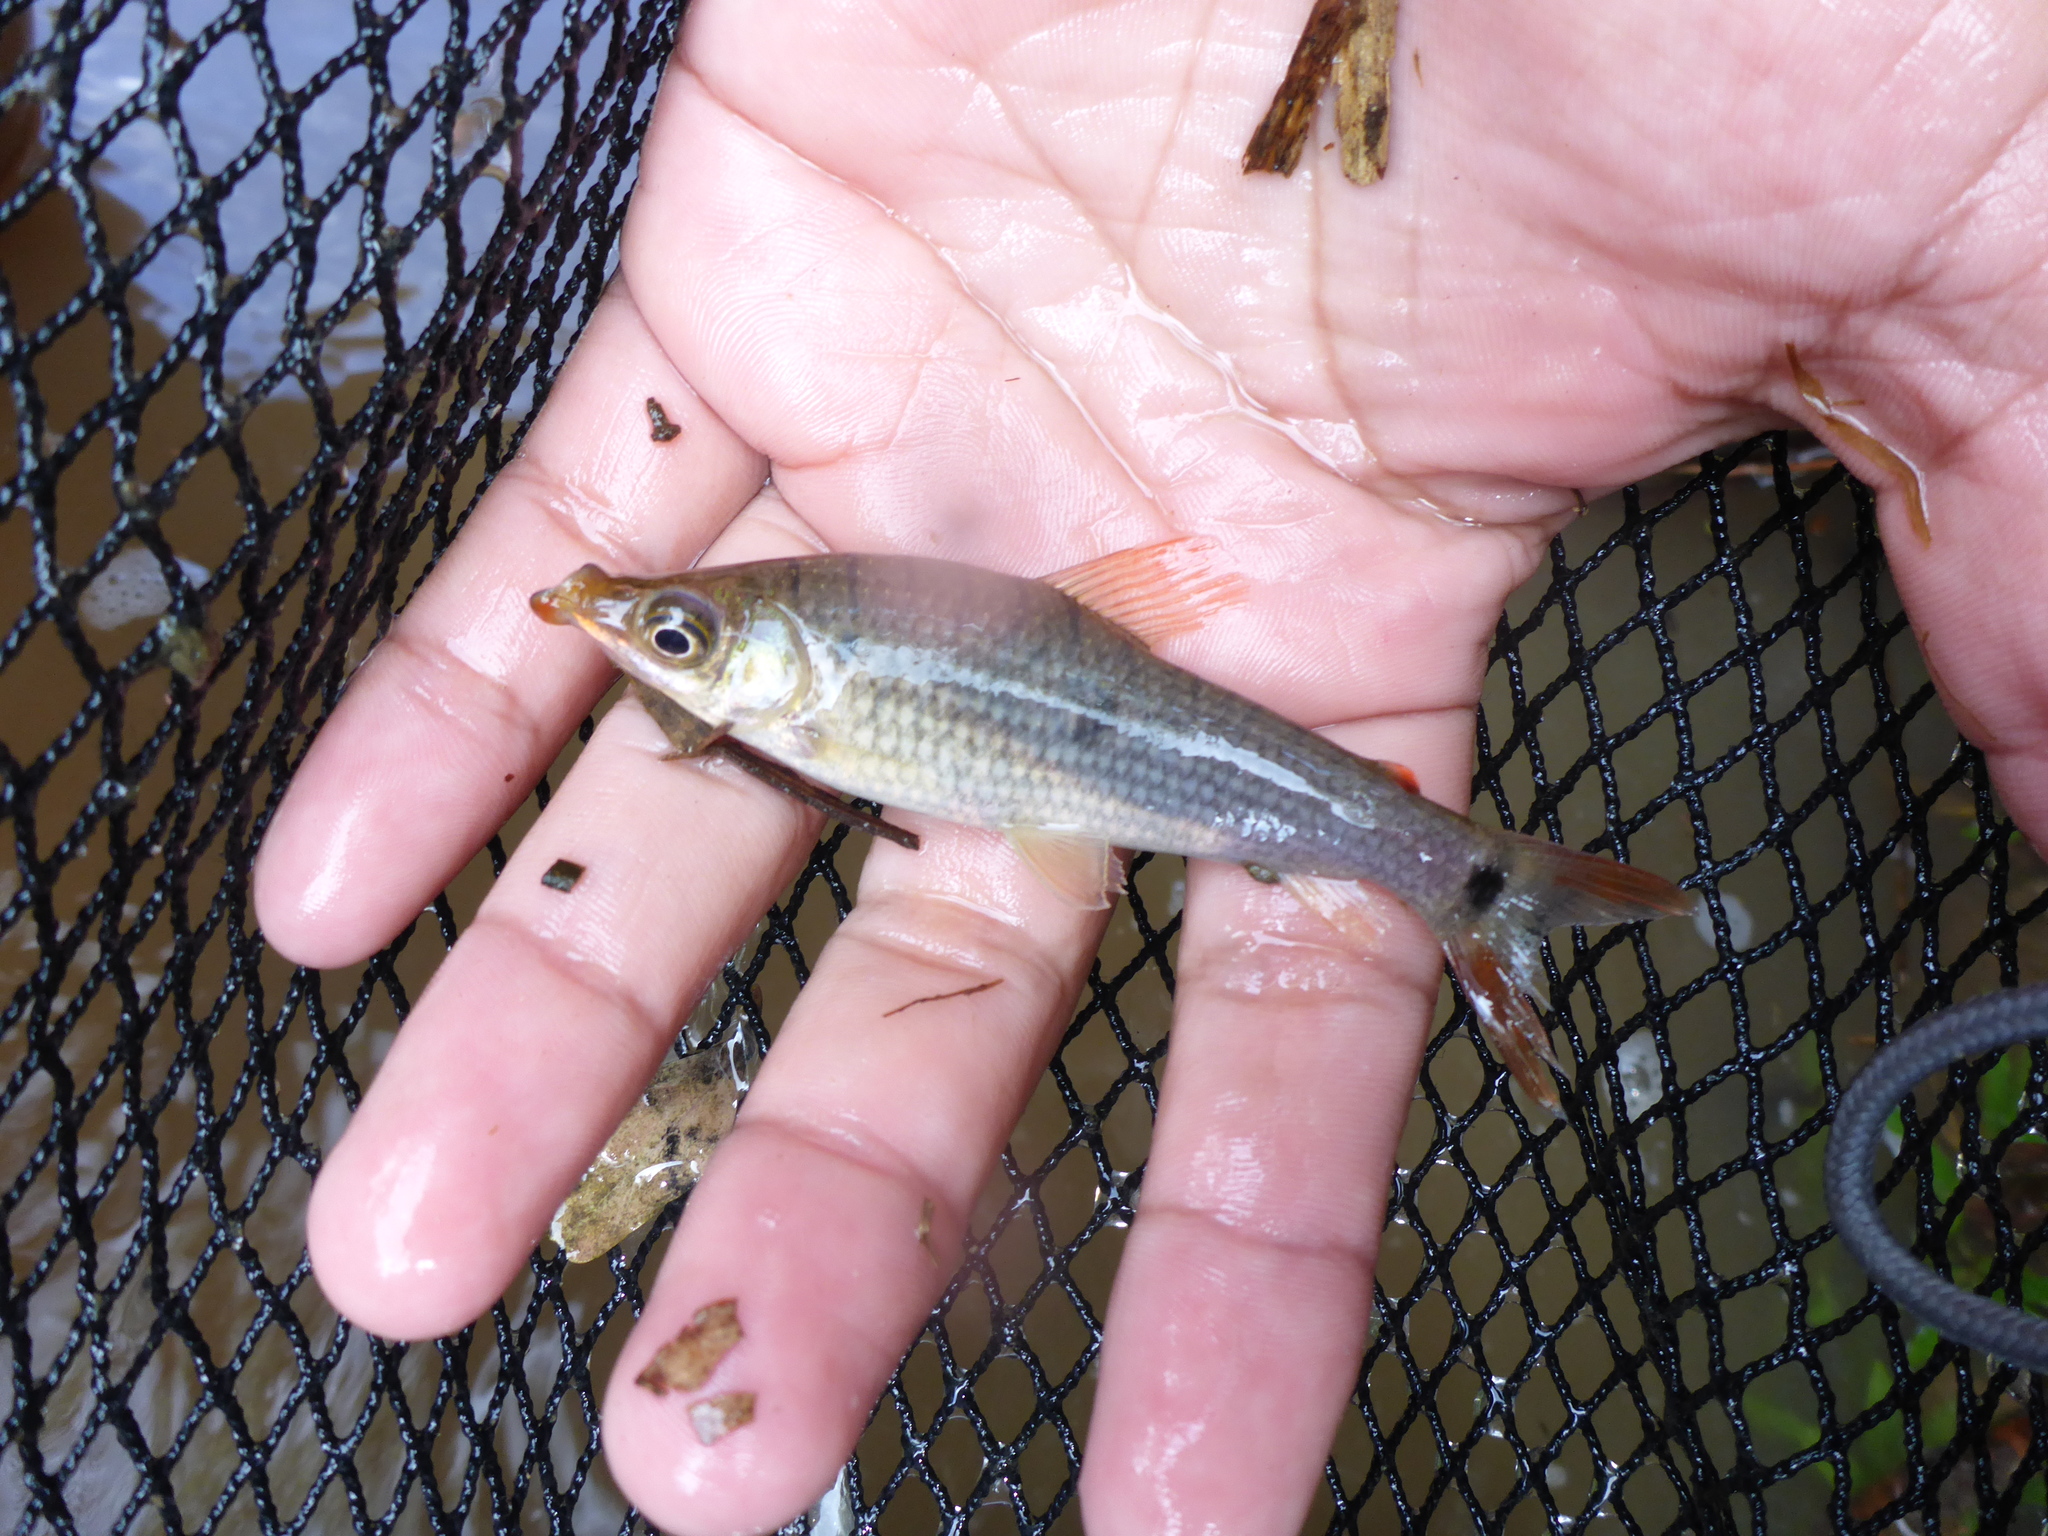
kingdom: Animalia
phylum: Chordata
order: Characiformes
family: Anostomidae
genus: Pseudanos
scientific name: Pseudanos trimaculatus
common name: Threespot headstander
